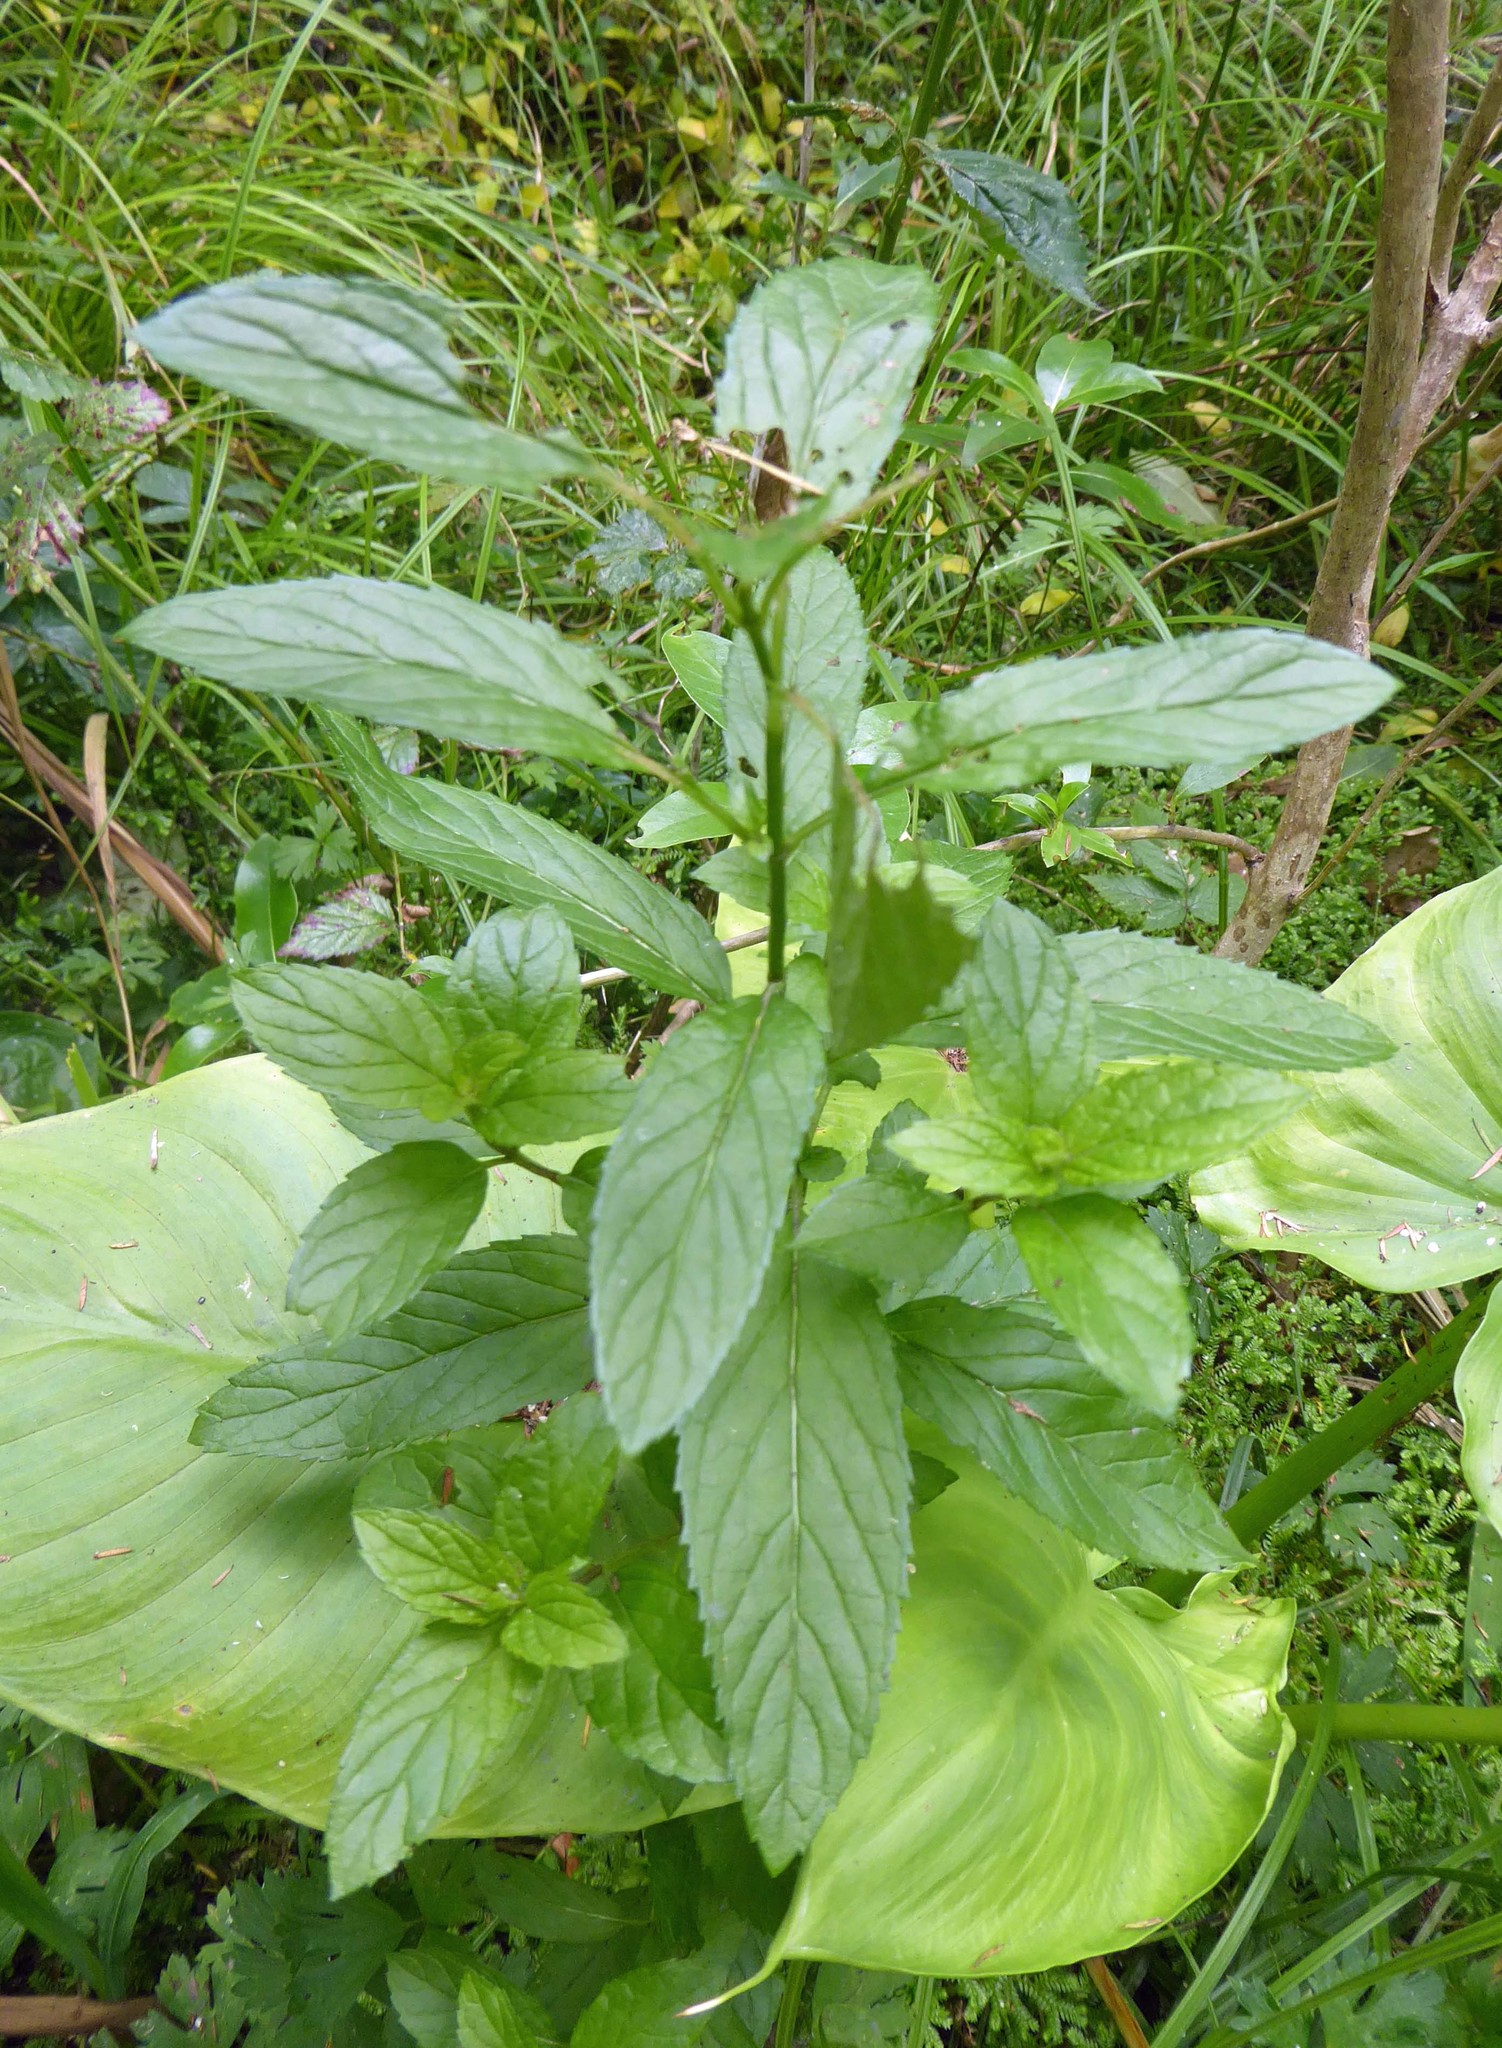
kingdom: Plantae
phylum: Tracheophyta
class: Magnoliopsida
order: Lamiales
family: Lamiaceae
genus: Mentha
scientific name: Mentha spicata
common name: Spearmint
